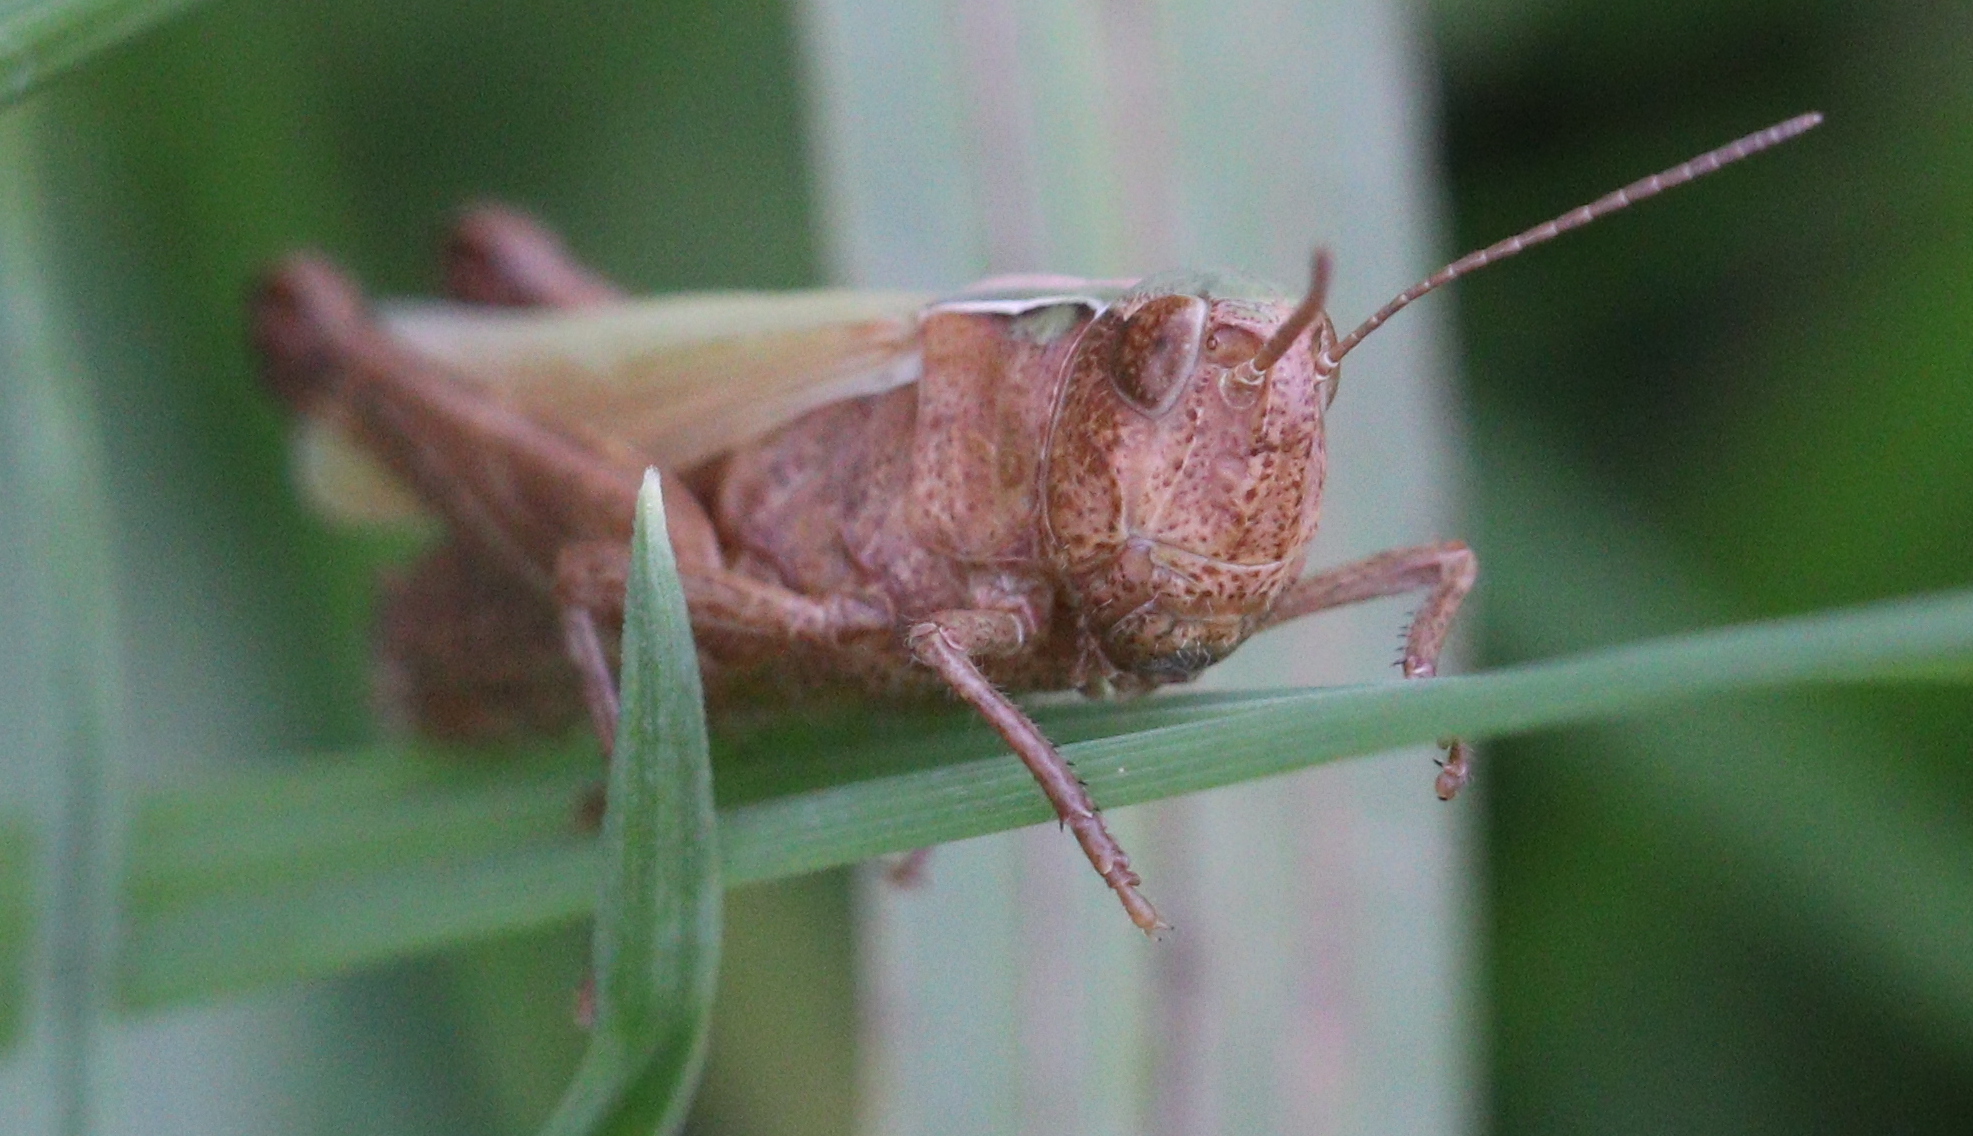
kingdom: Animalia
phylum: Arthropoda
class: Insecta
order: Orthoptera
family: Acrididae
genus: Omocestus
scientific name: Omocestus viridulus
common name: Common green grasshopper
